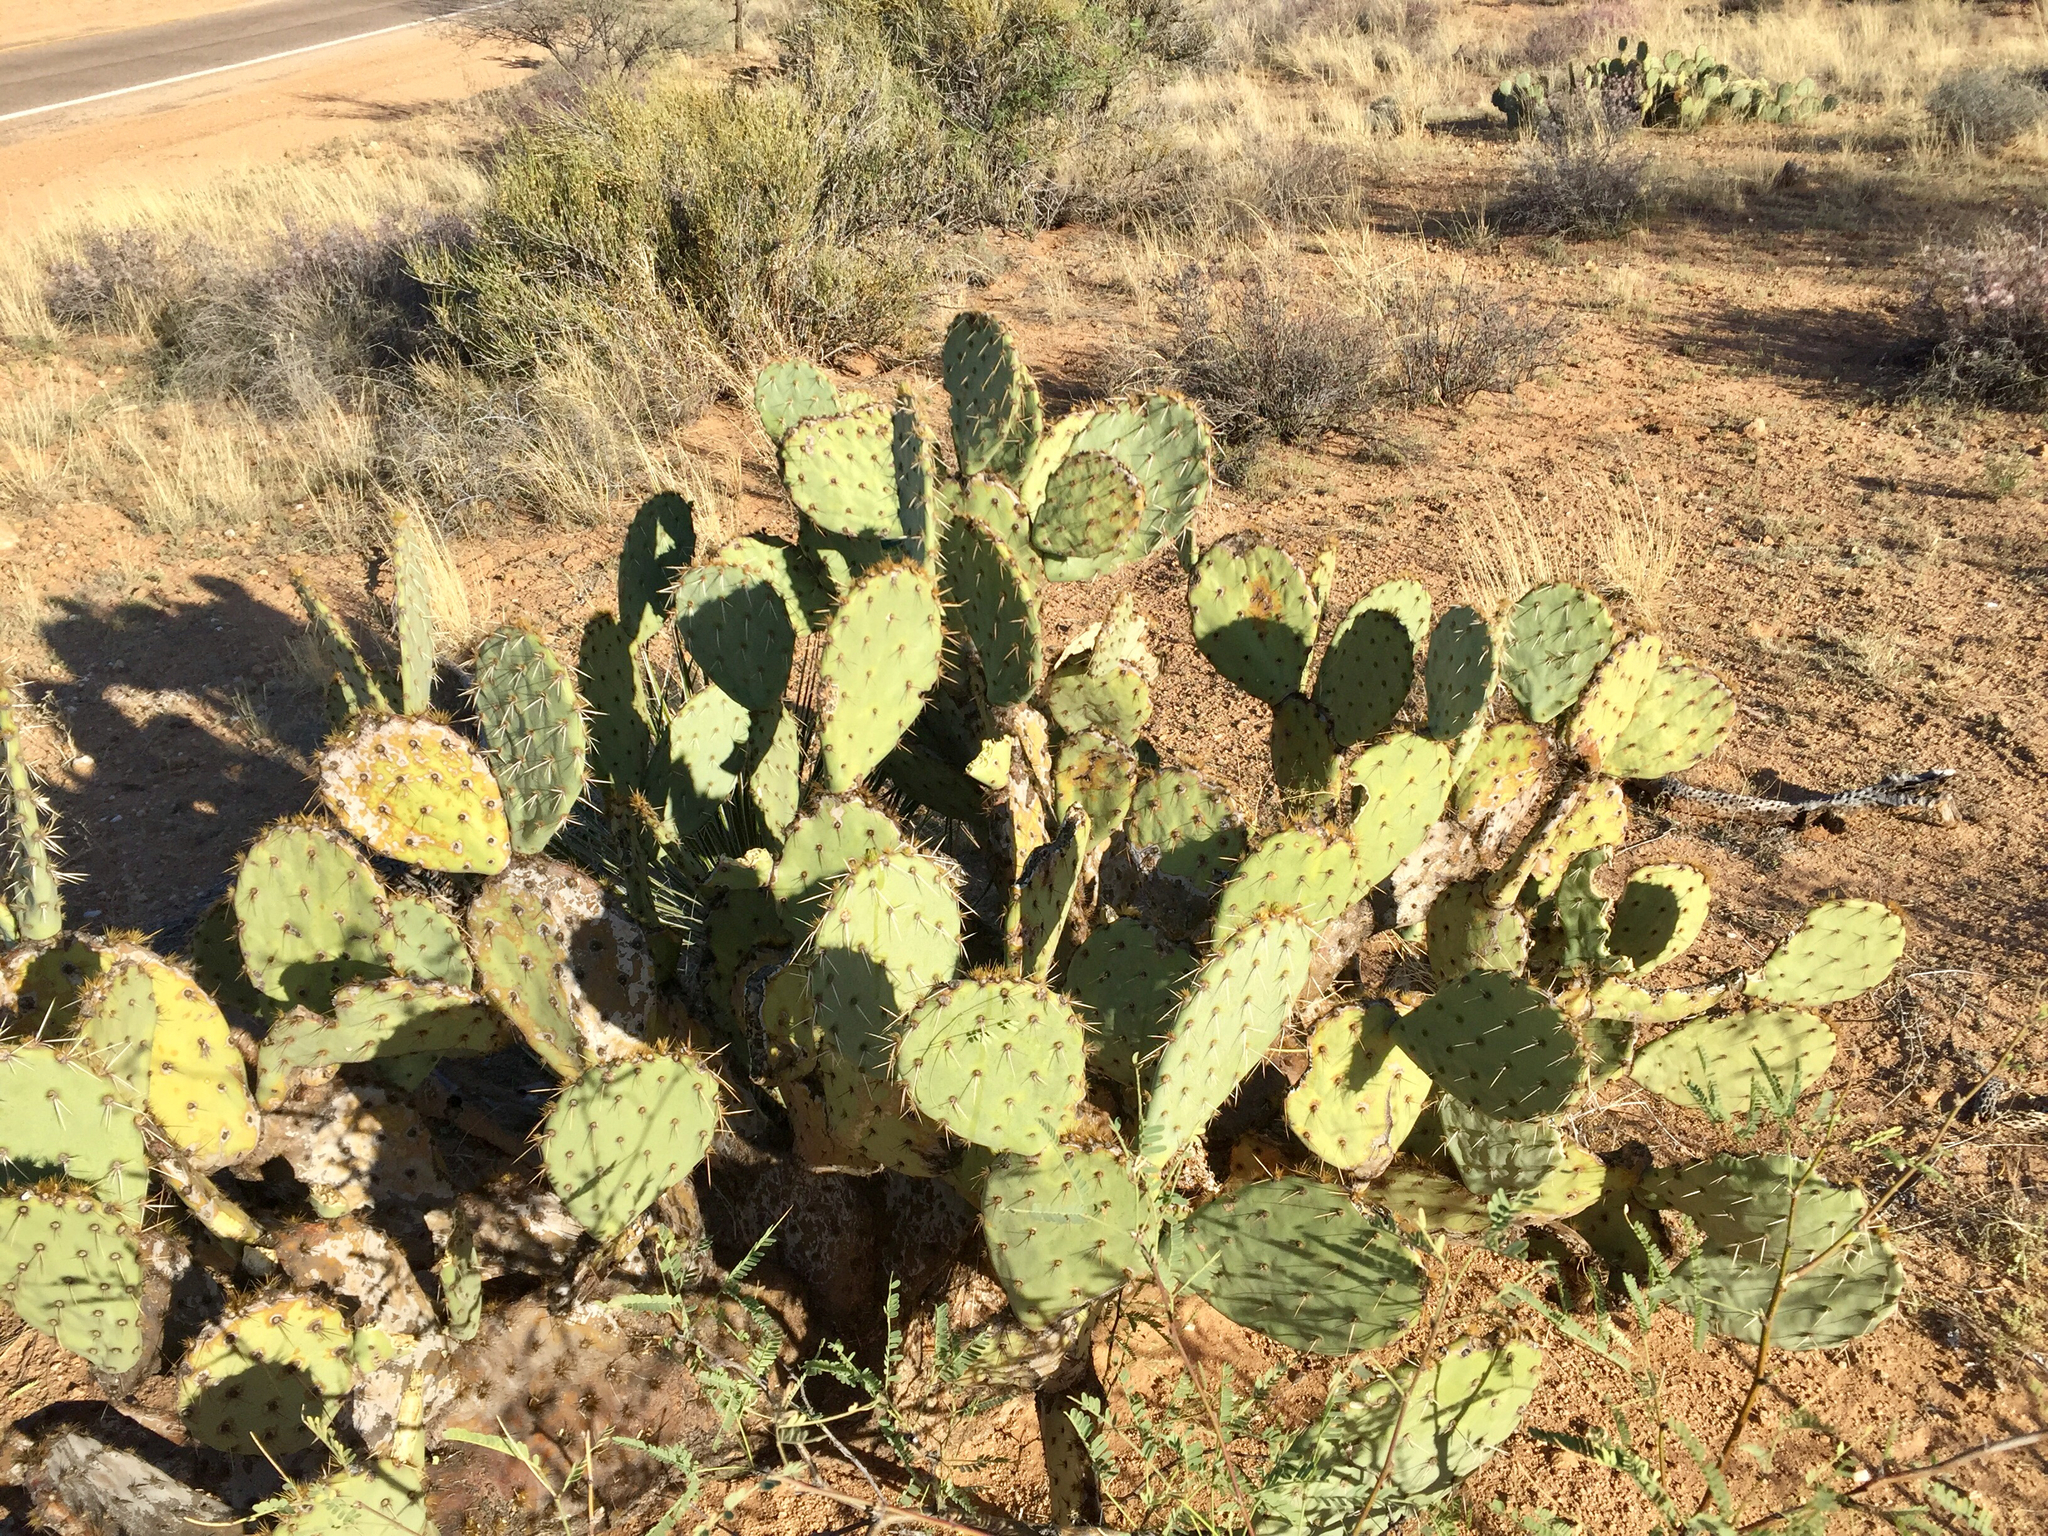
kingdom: Plantae
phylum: Tracheophyta
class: Magnoliopsida
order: Caryophyllales
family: Cactaceae
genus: Opuntia
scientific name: Opuntia engelmannii
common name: Cactus-apple
